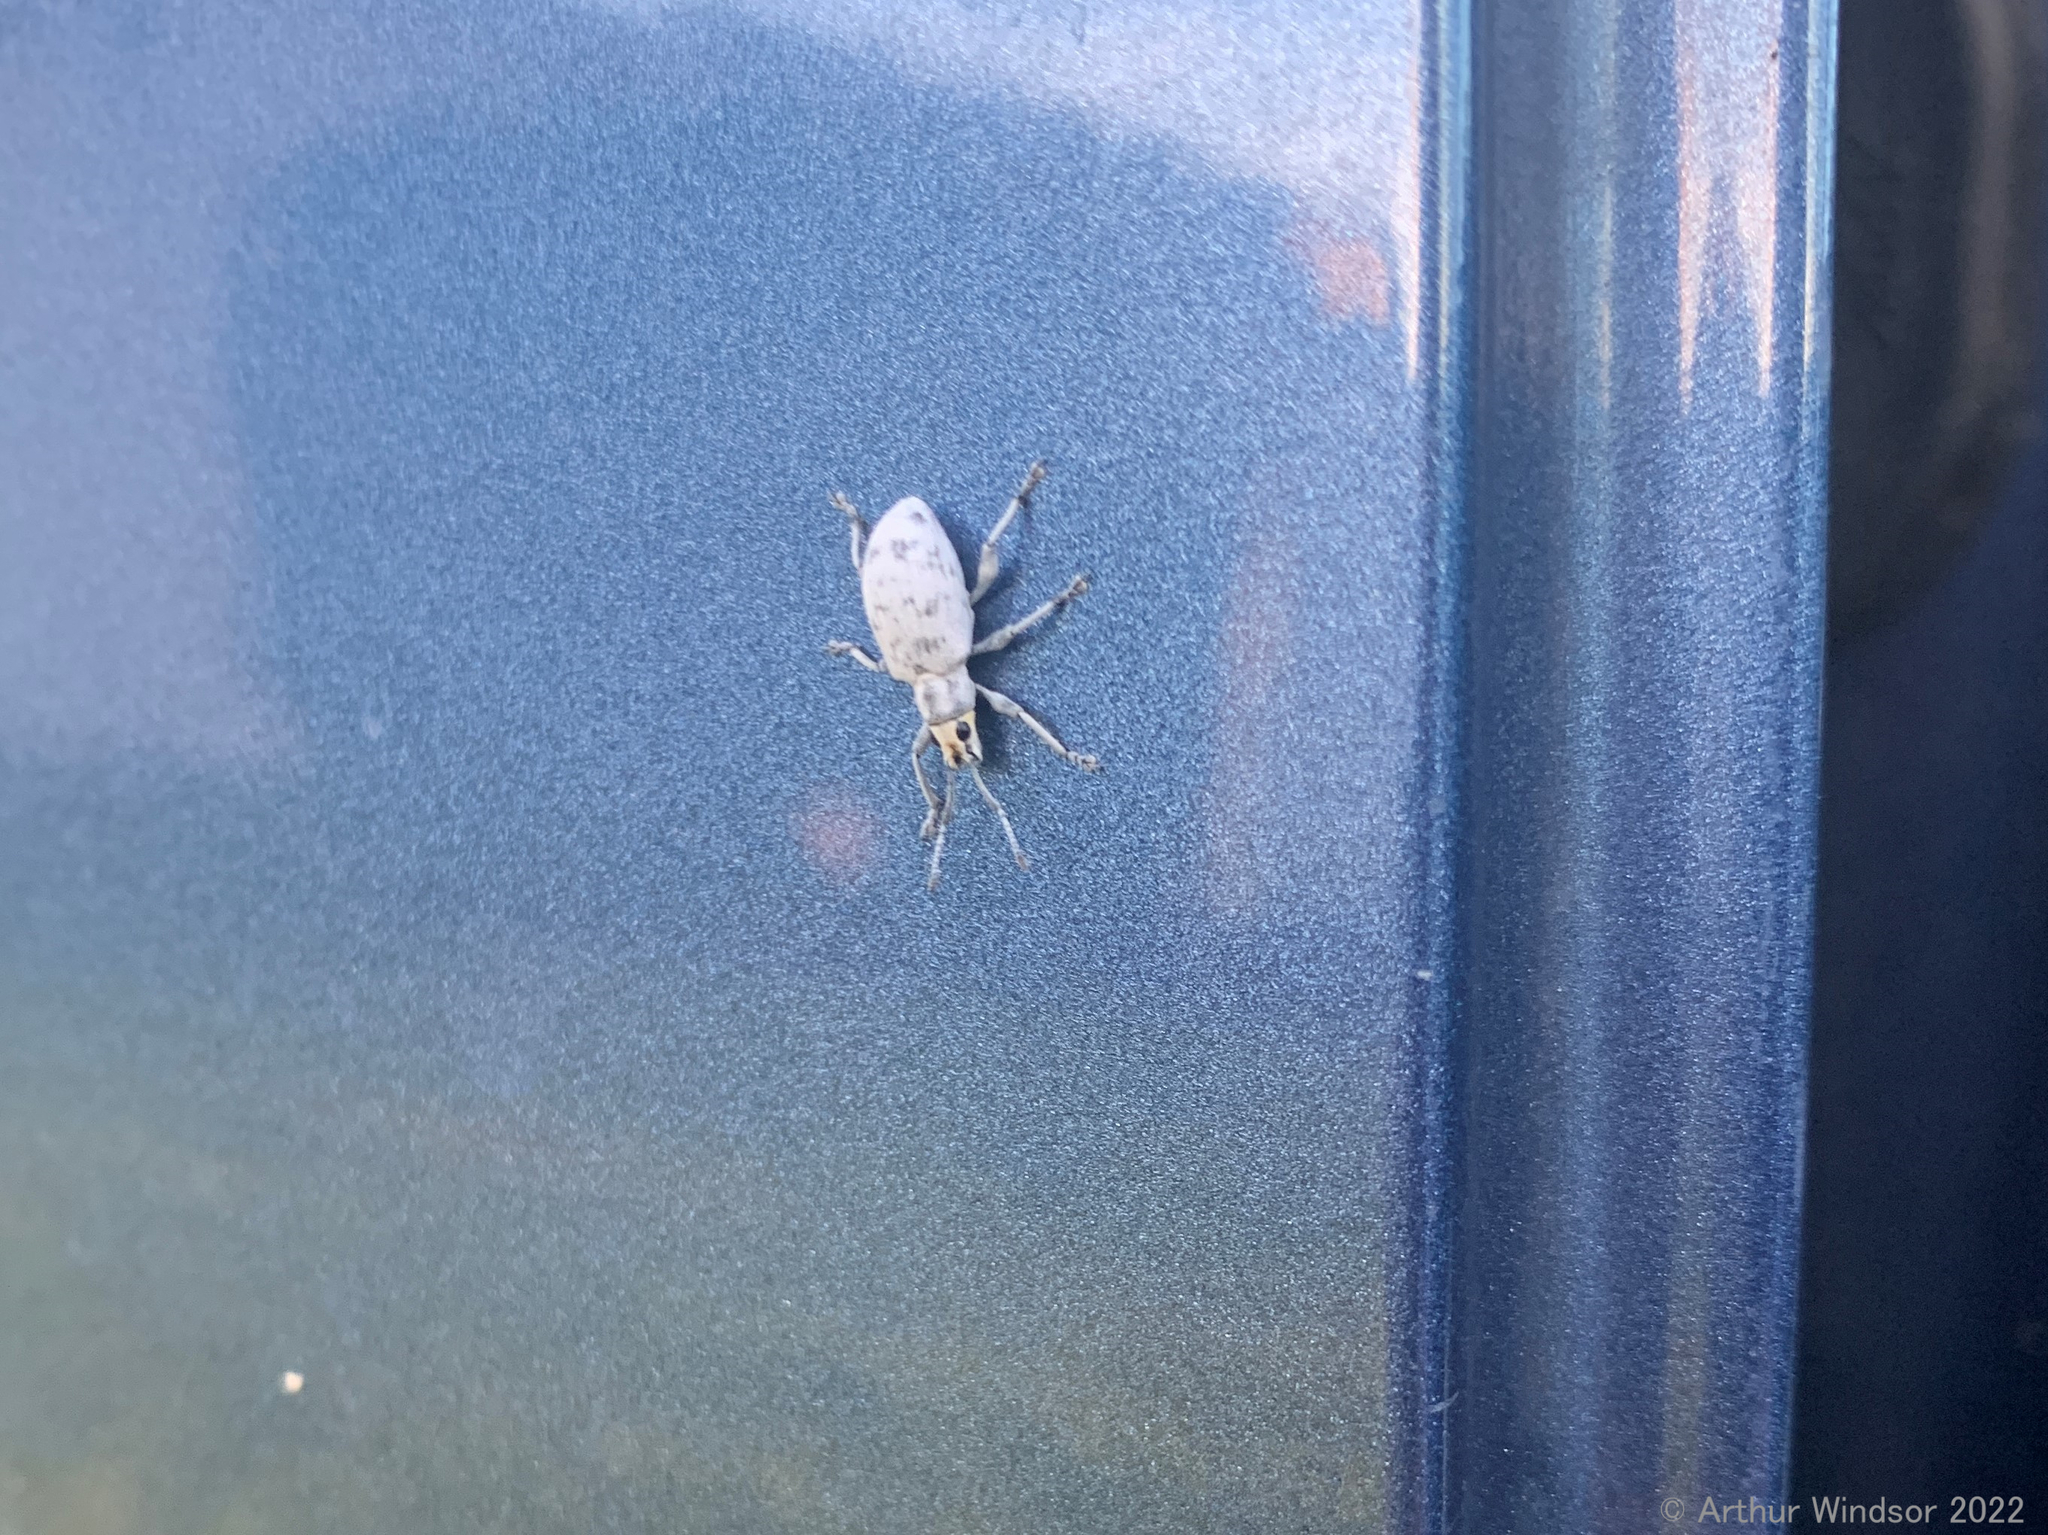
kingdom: Animalia
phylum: Arthropoda
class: Insecta
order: Coleoptera
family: Curculionidae
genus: Myllocerus
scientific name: Myllocerus undecimpustulatus
